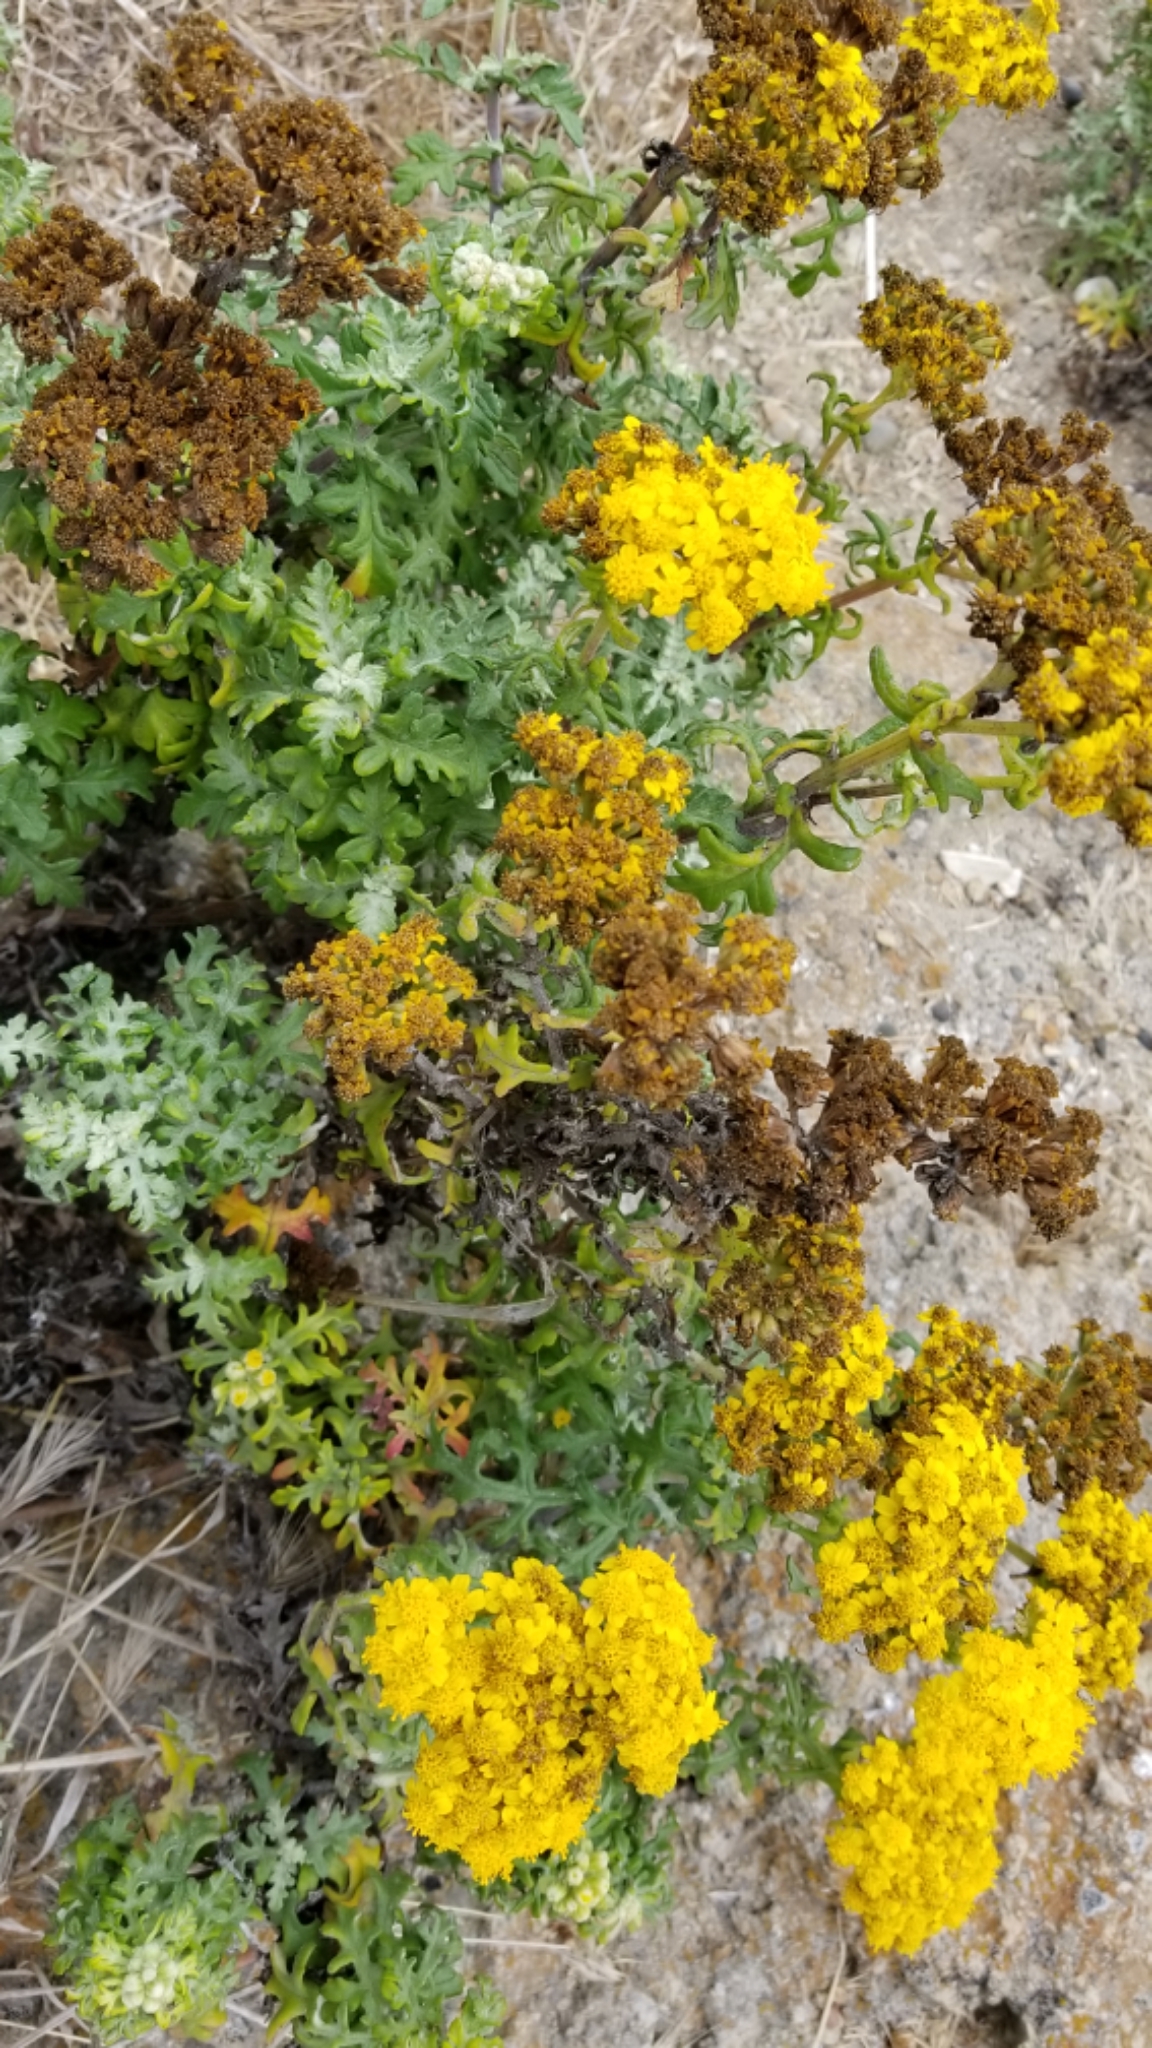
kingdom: Plantae
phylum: Tracheophyta
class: Magnoliopsida
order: Asterales
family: Asteraceae
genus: Eriophyllum
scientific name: Eriophyllum staechadifolium
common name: Lizardtail
